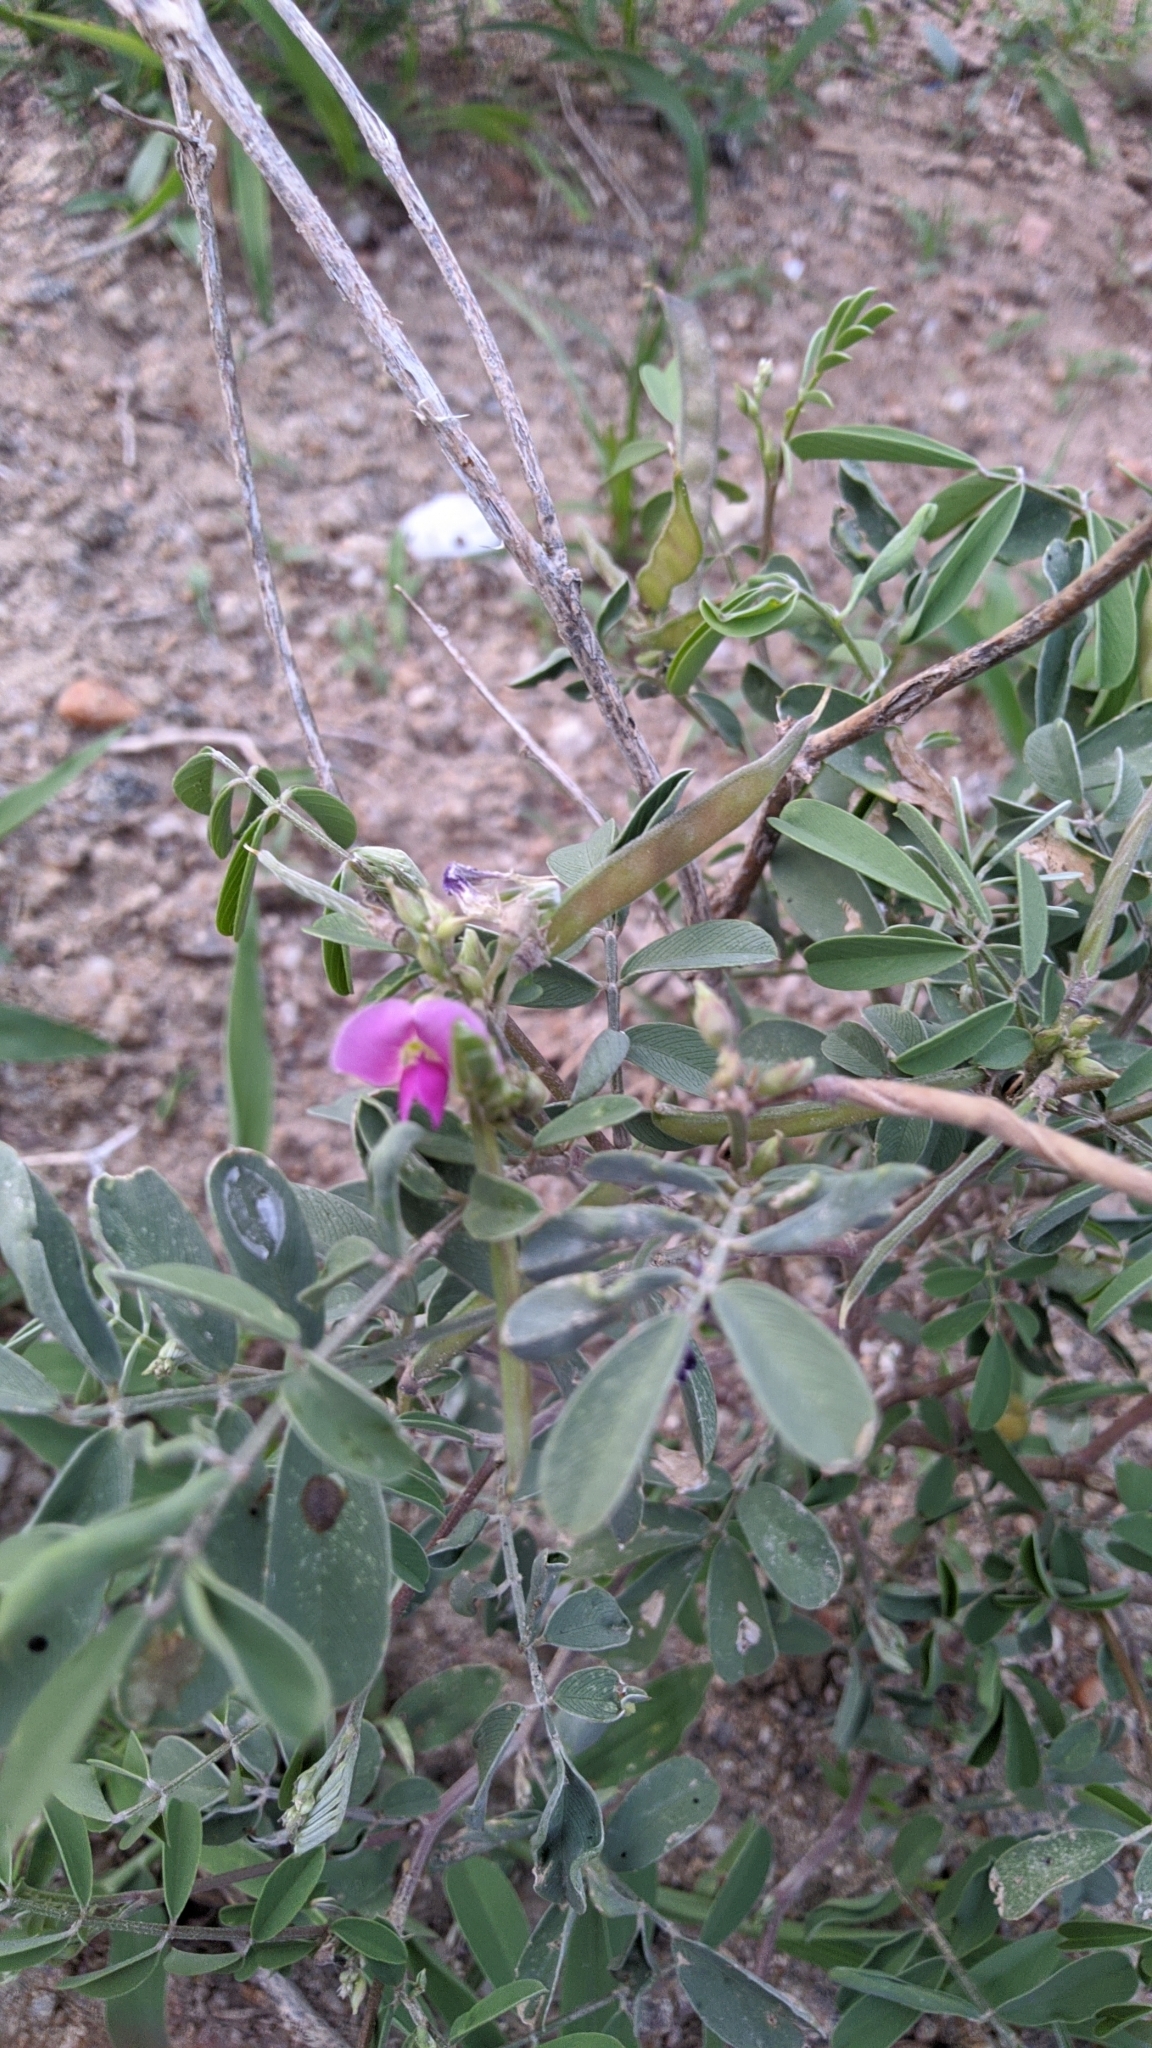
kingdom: Plantae
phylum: Tracheophyta
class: Magnoliopsida
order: Fabales
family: Fabaceae
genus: Tephrosia
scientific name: Tephrosia purpurea
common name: Fishpoison
